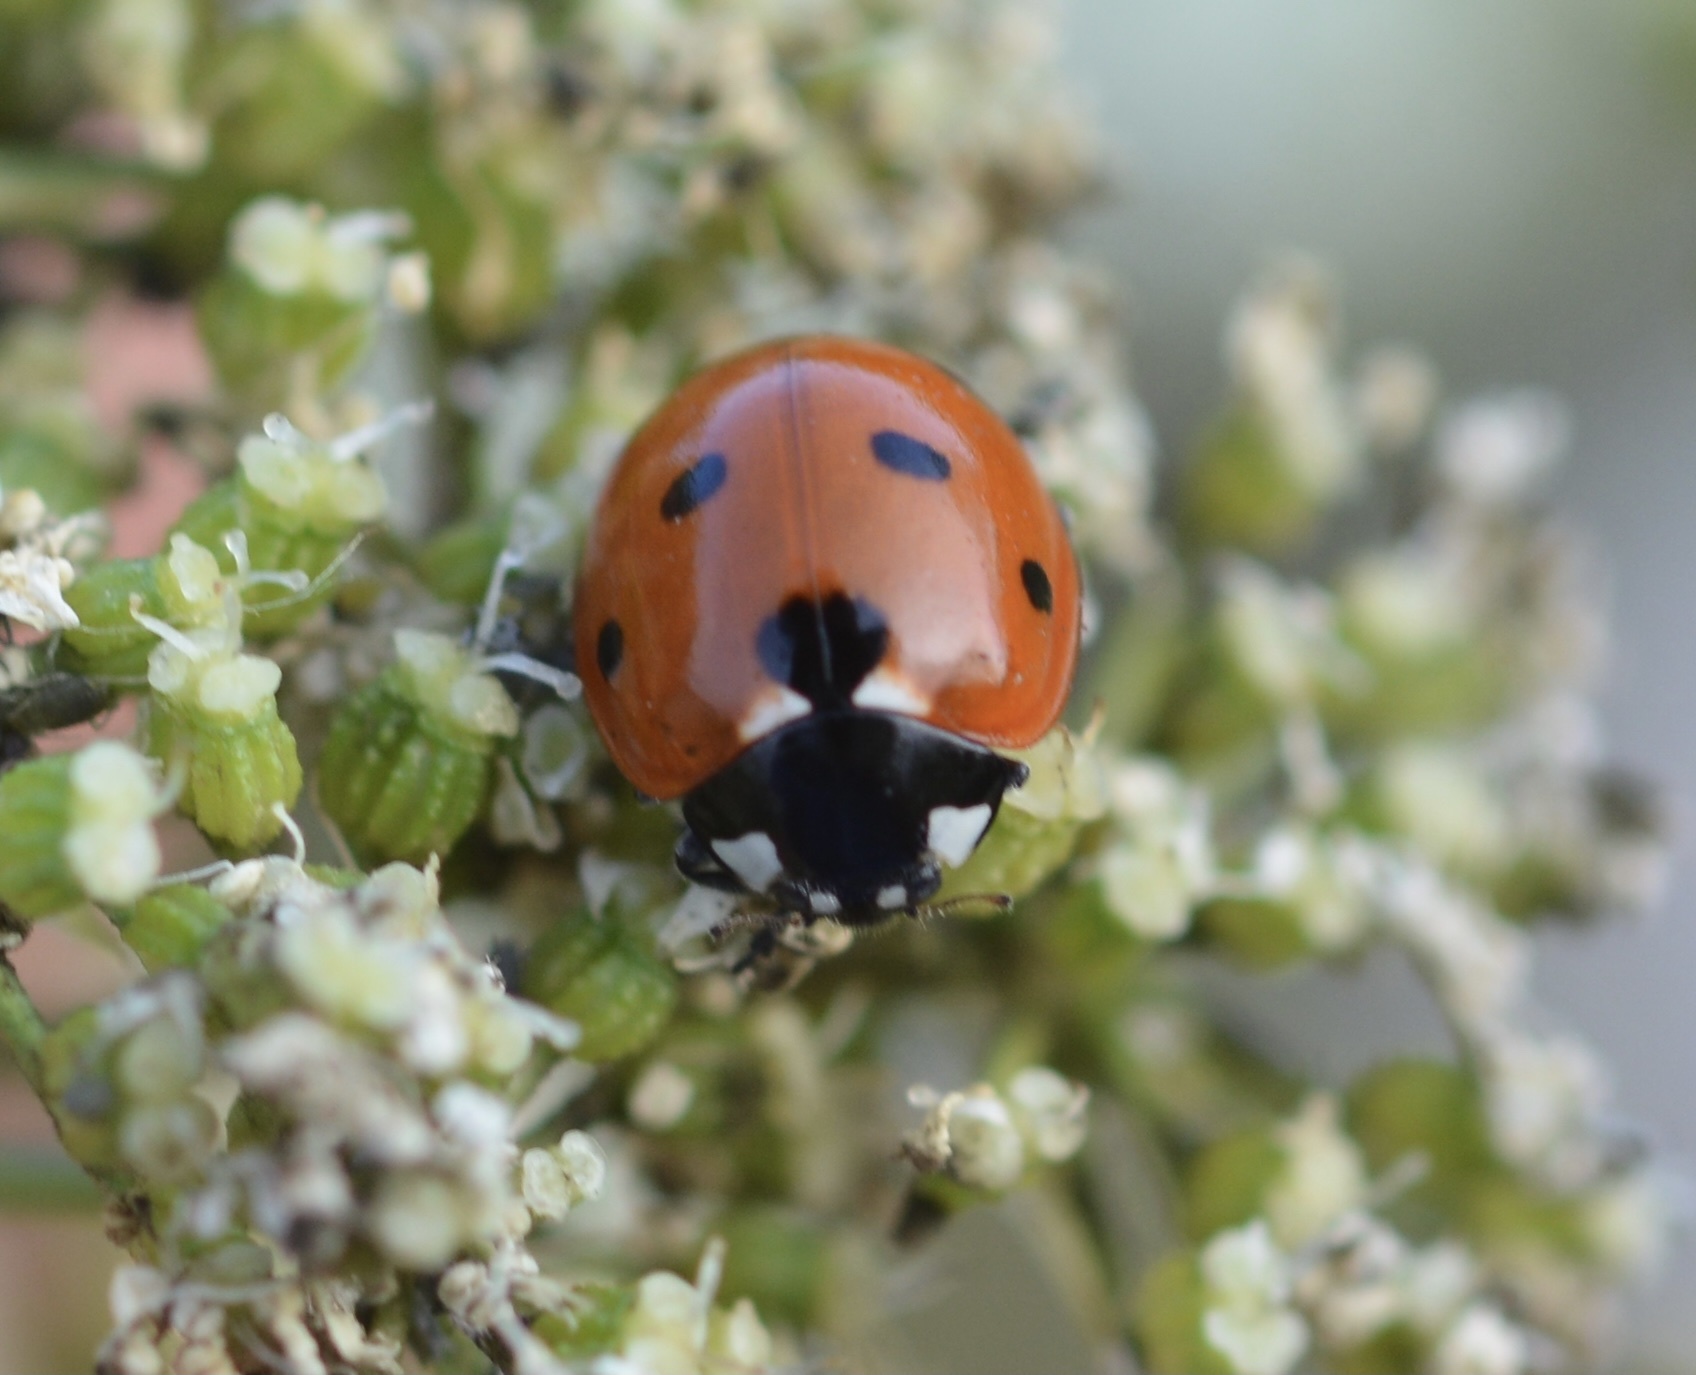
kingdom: Animalia
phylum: Arthropoda
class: Insecta
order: Coleoptera
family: Coccinellidae
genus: Coccinella
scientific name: Coccinella septempunctata
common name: Sevenspotted lady beetle
